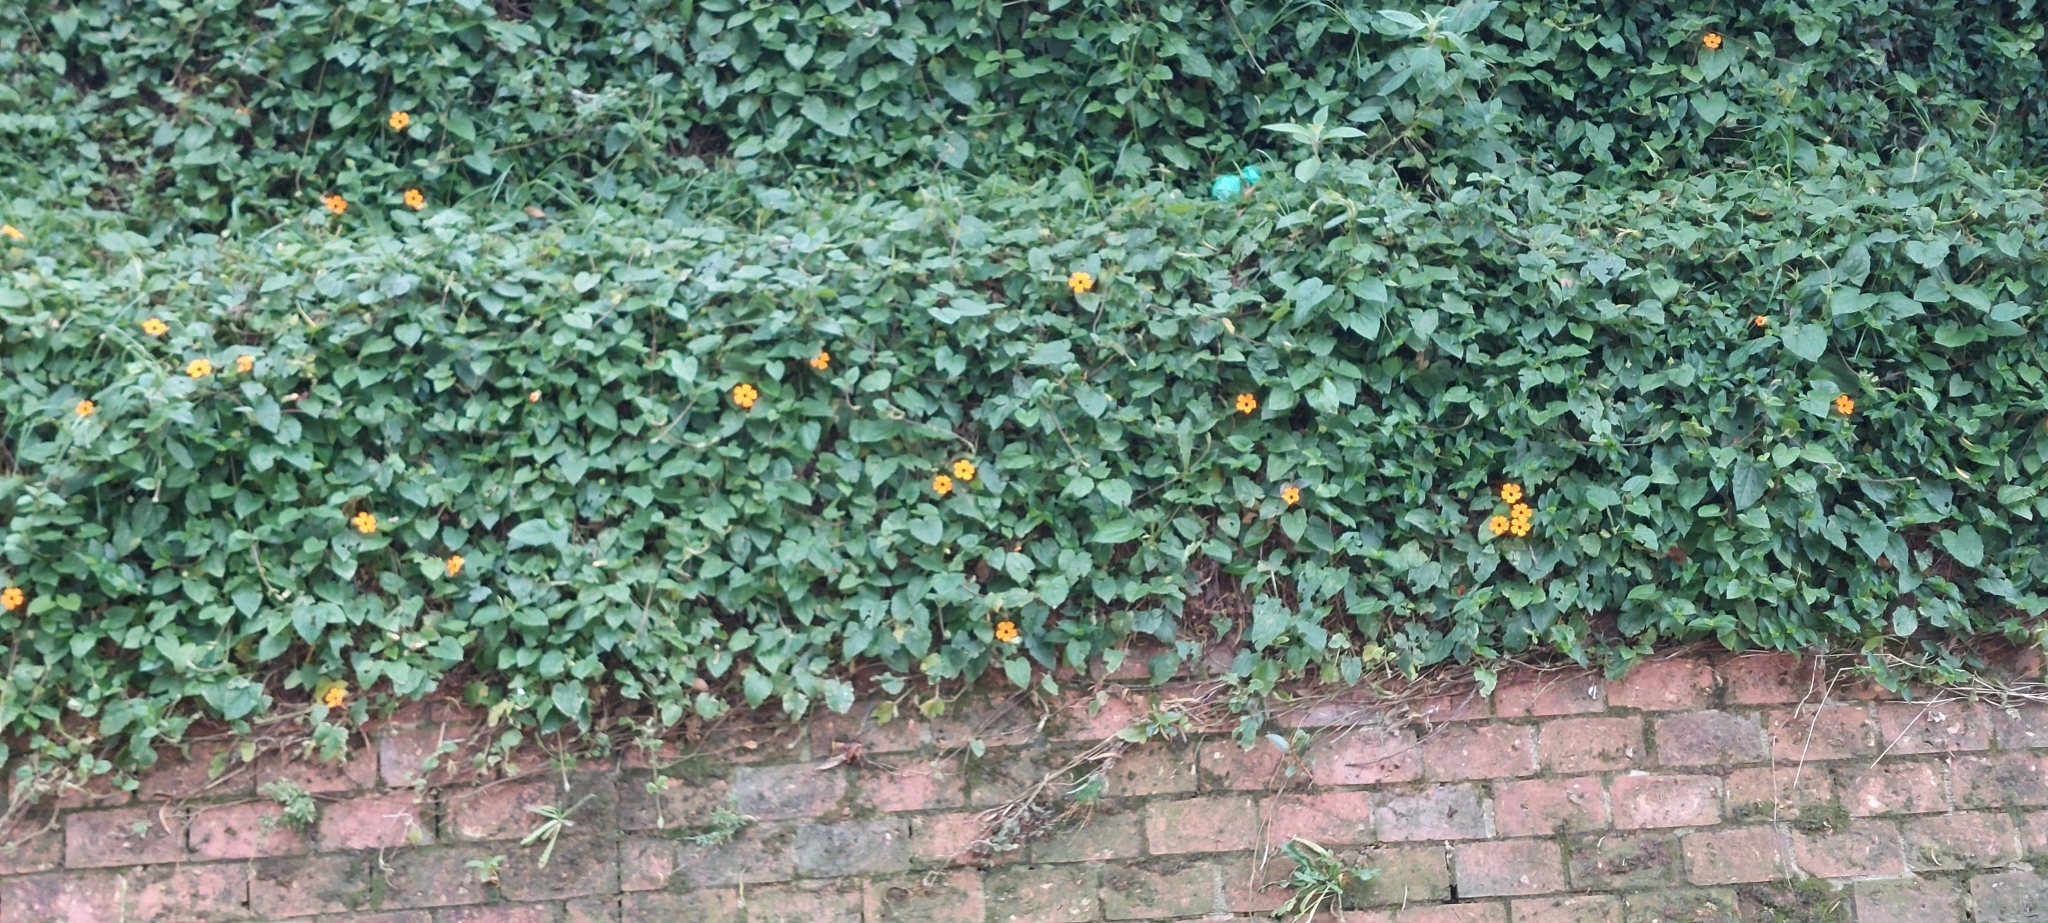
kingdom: Plantae
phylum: Tracheophyta
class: Magnoliopsida
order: Lamiales
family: Acanthaceae
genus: Thunbergia
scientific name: Thunbergia alata
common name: Blackeyed susan vine
